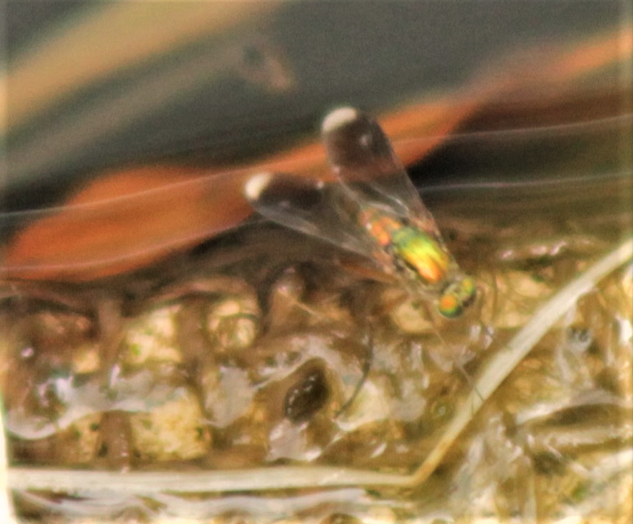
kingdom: Animalia
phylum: Arthropoda
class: Insecta
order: Diptera
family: Dolichopodidae
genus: Poecilobothrus
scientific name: Poecilobothrus nobilitatus
